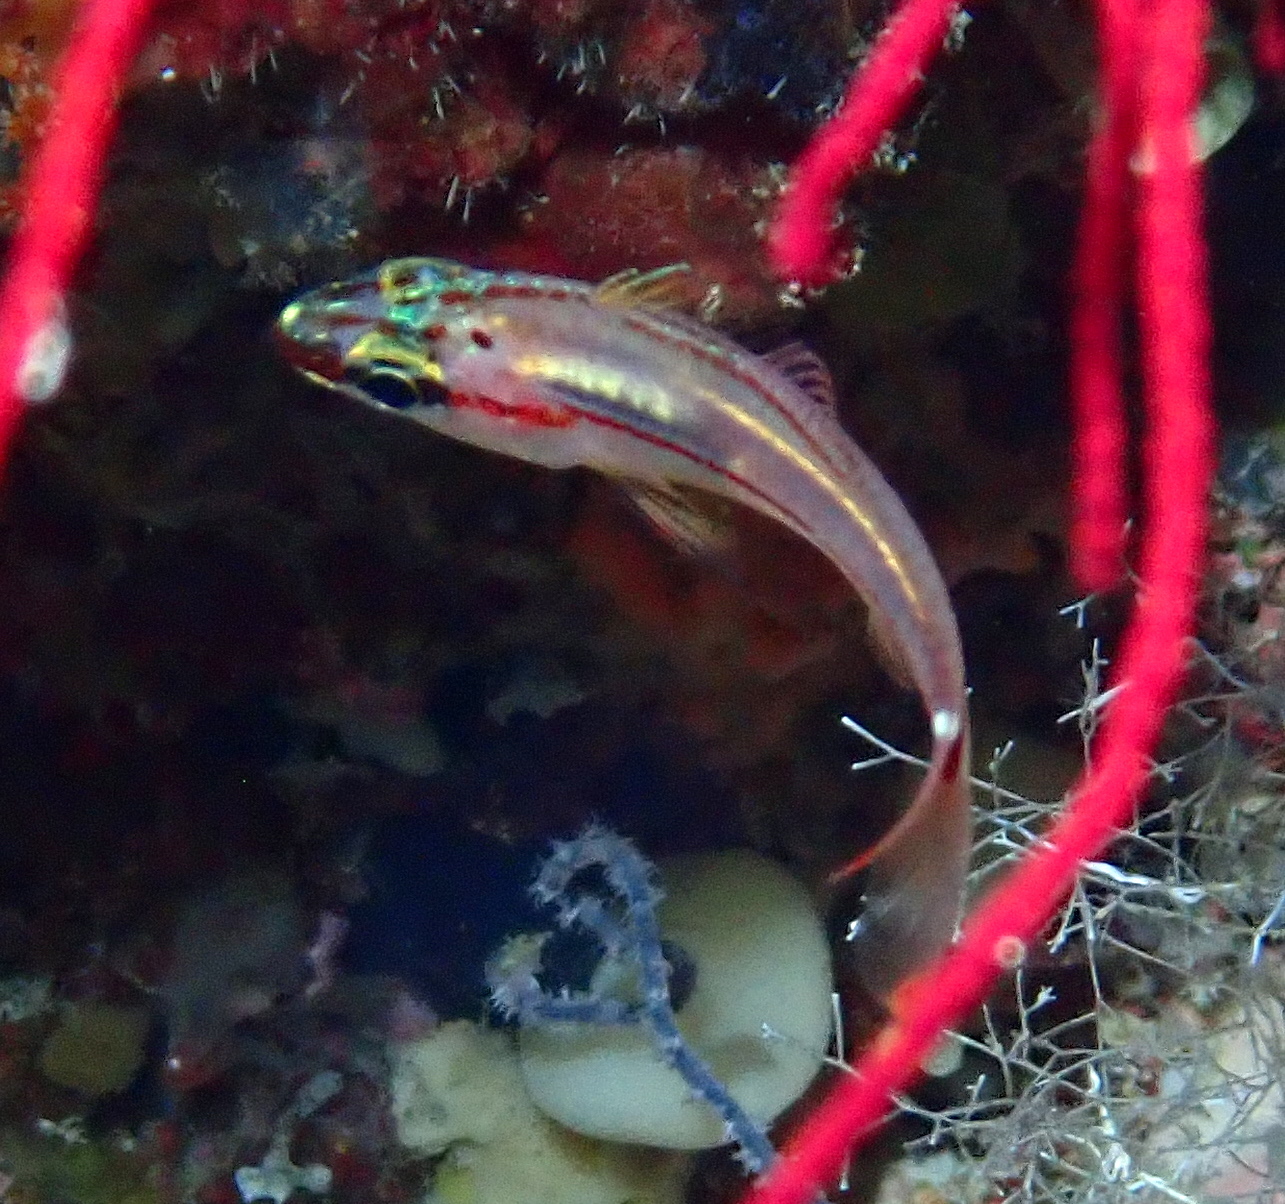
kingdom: Animalia
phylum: Chordata
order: Perciformes
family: Apogonidae
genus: Ostorhinchus
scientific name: Ostorhinchus dispar
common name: Redspot cardinalfish
